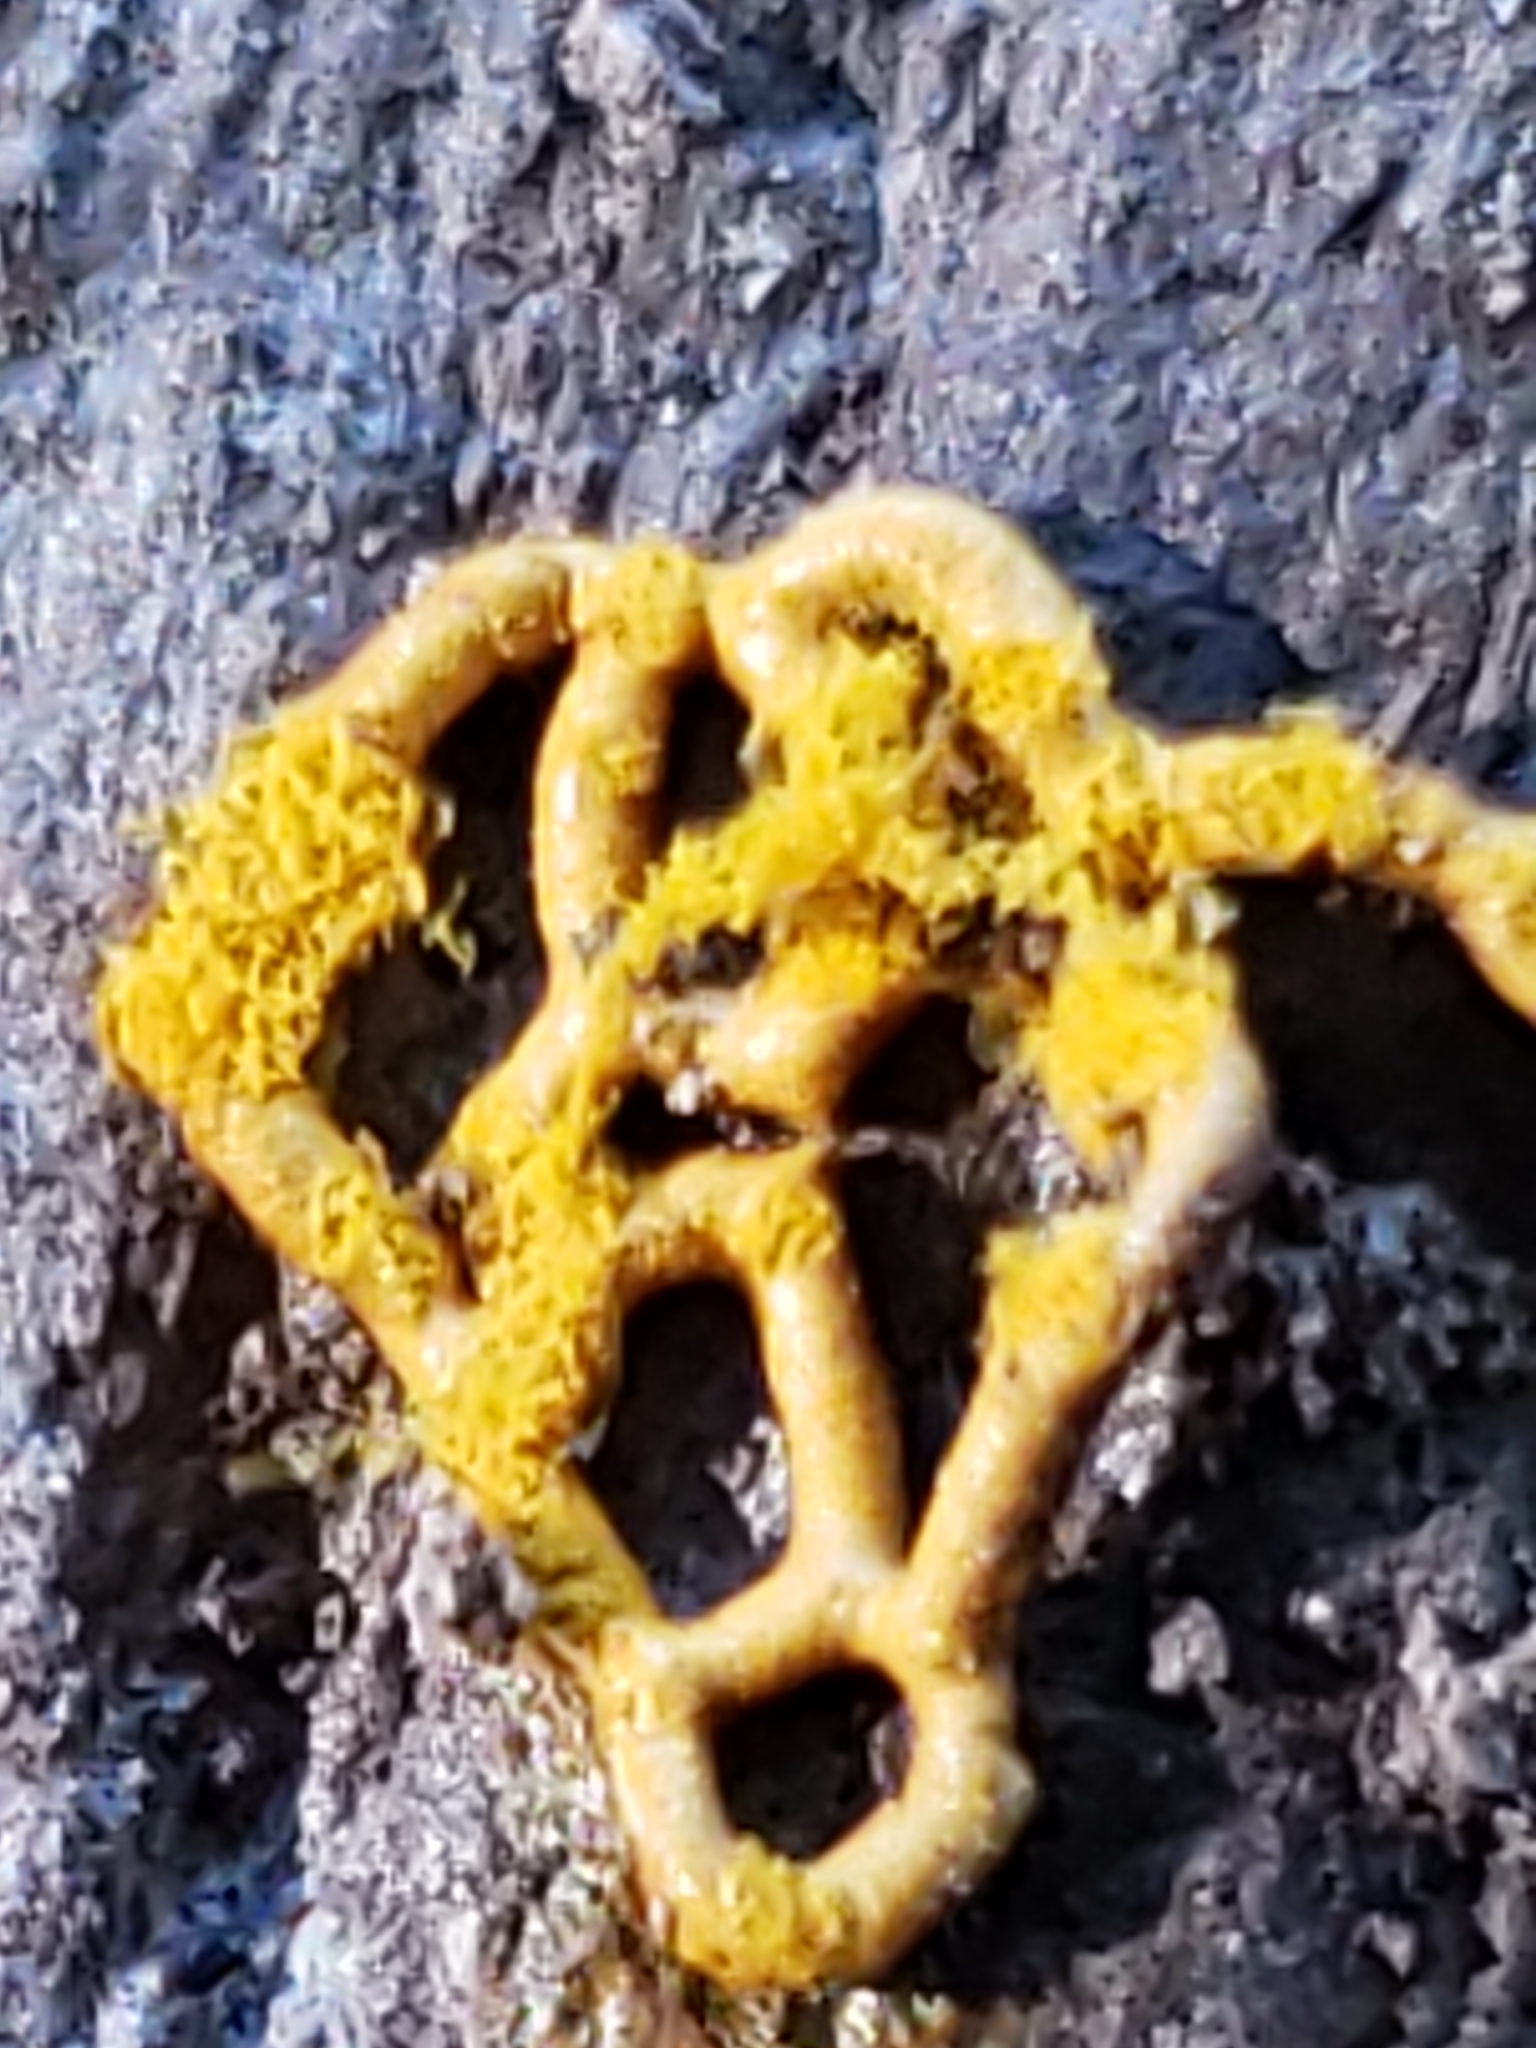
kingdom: Protozoa
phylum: Mycetozoa
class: Myxomycetes
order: Trichiales
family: Arcyriaceae
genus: Hemitrichia
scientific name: Hemitrichia serpula
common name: Pretzel slime mold
